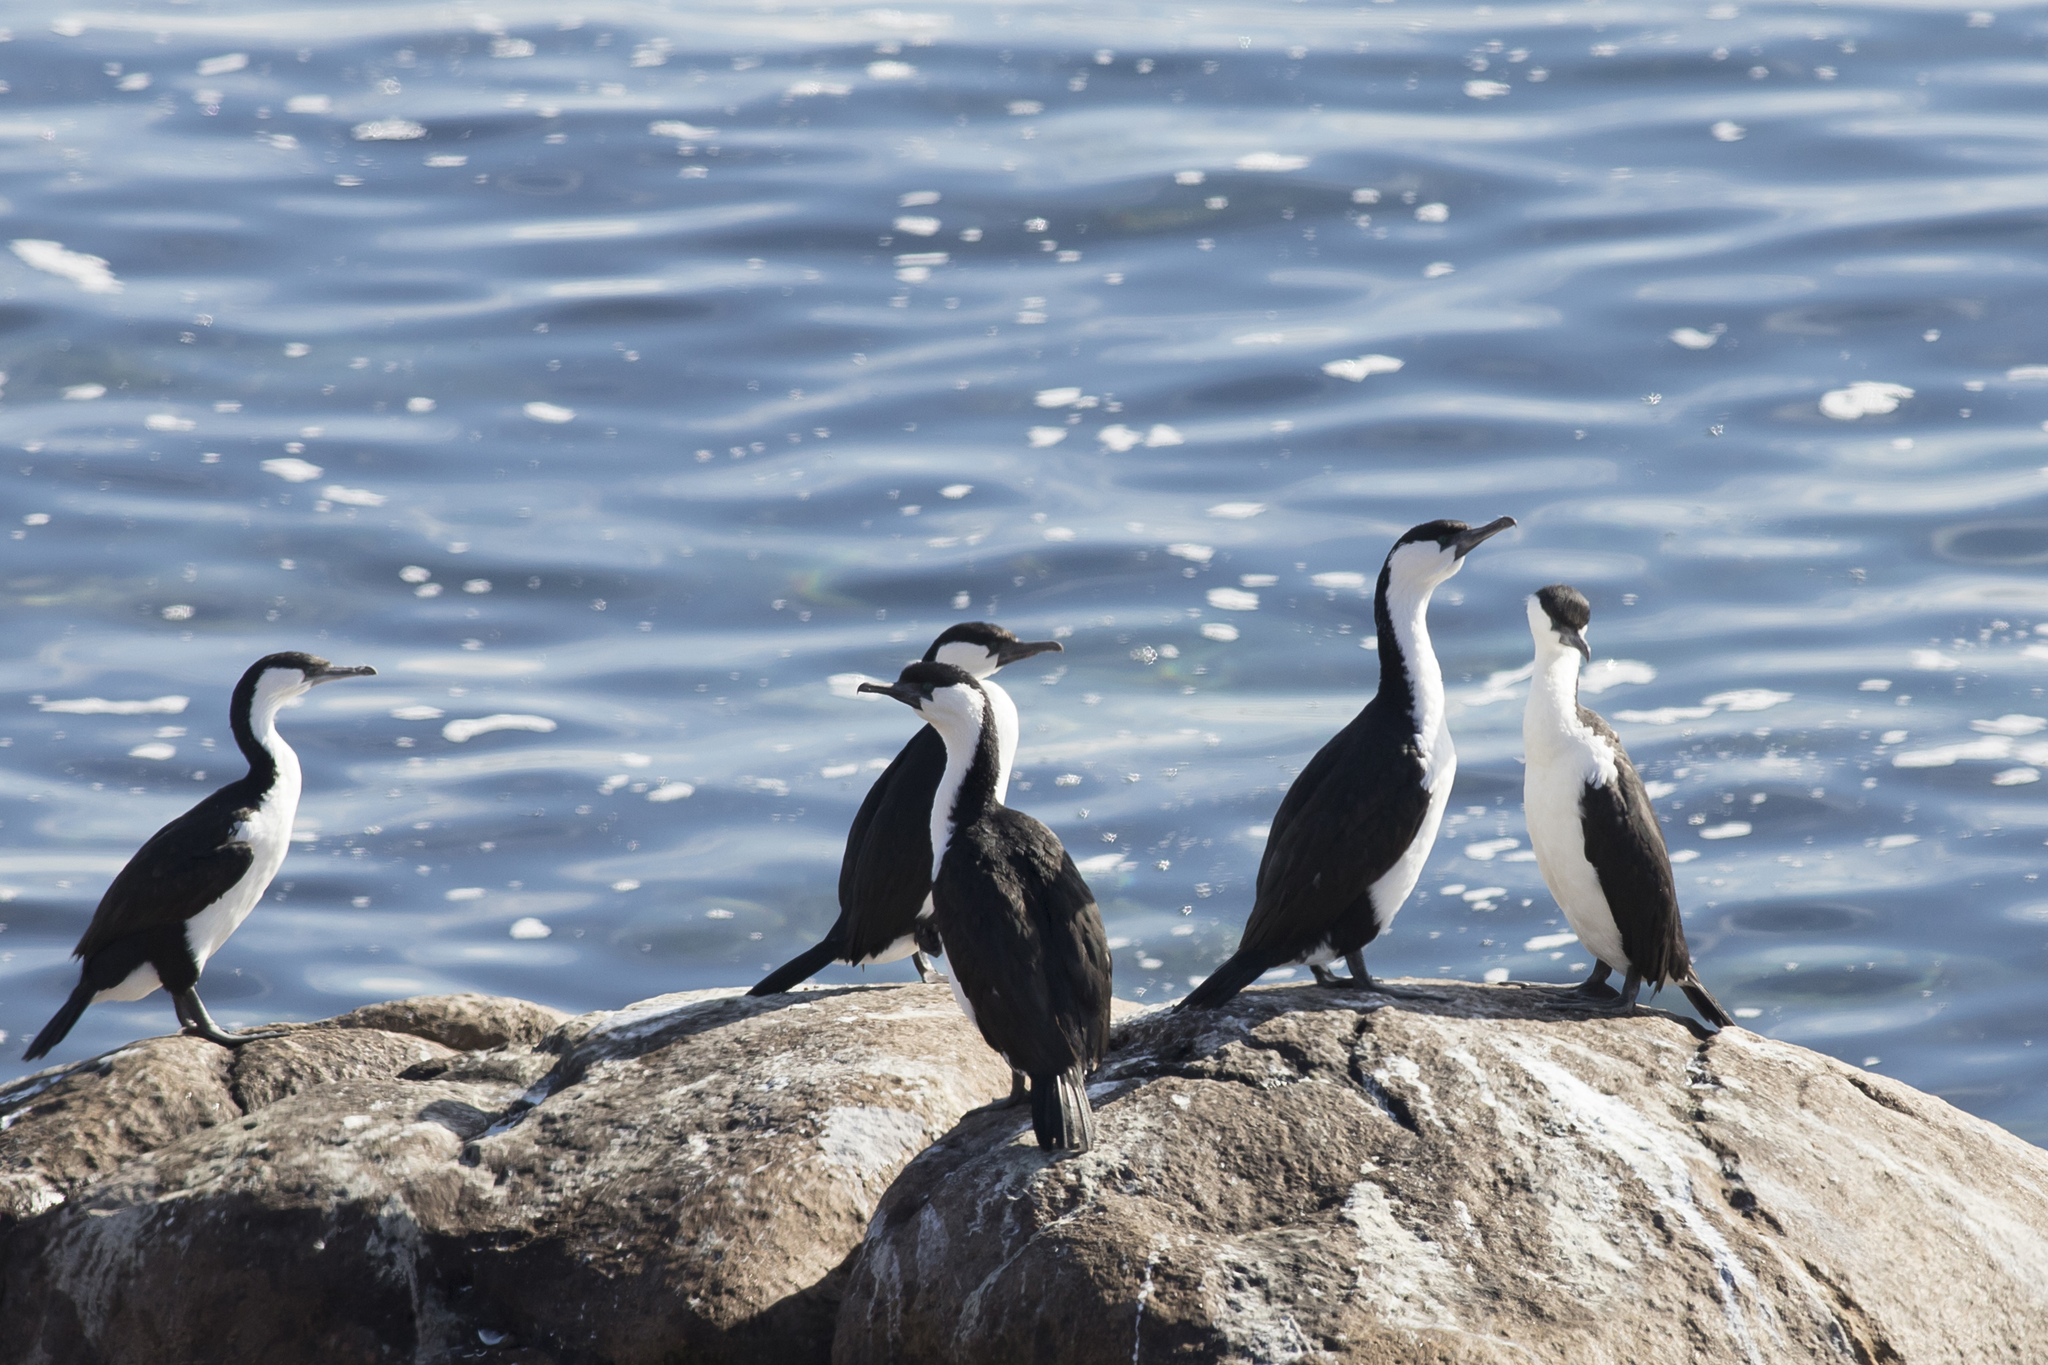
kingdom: Animalia
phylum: Chordata
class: Aves
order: Suliformes
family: Phalacrocoracidae
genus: Phalacrocorax
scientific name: Phalacrocorax fuscescens
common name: Black-faced cormorant
